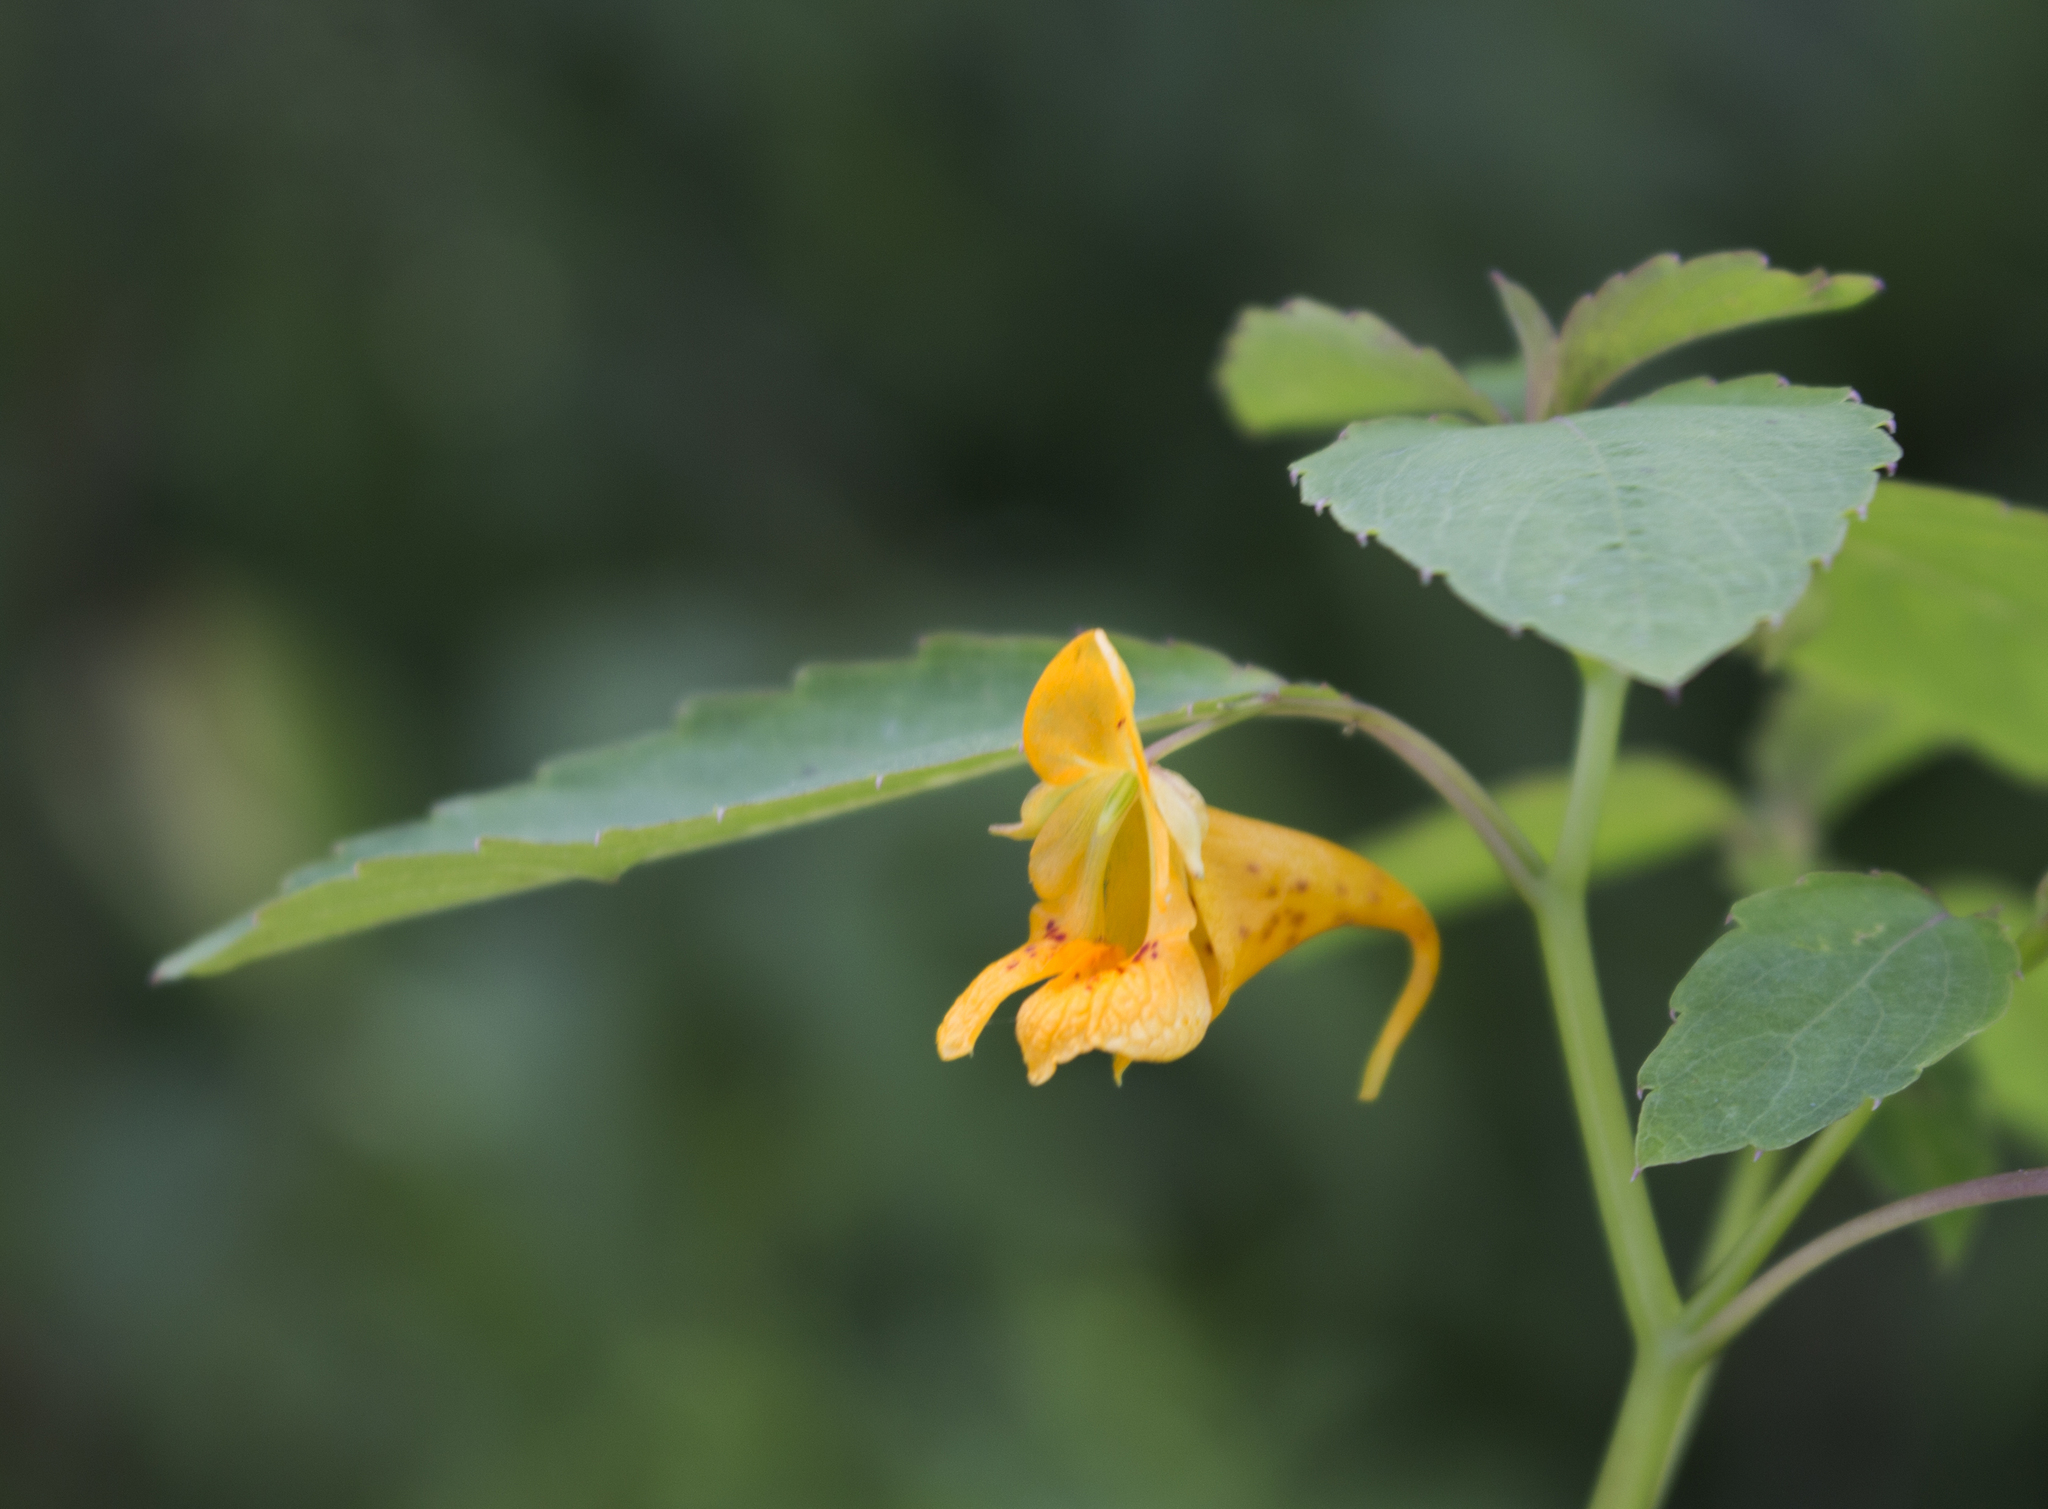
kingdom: Plantae
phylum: Tracheophyta
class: Magnoliopsida
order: Ericales
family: Balsaminaceae
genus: Impatiens
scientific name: Impatiens capensis
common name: Orange balsam
